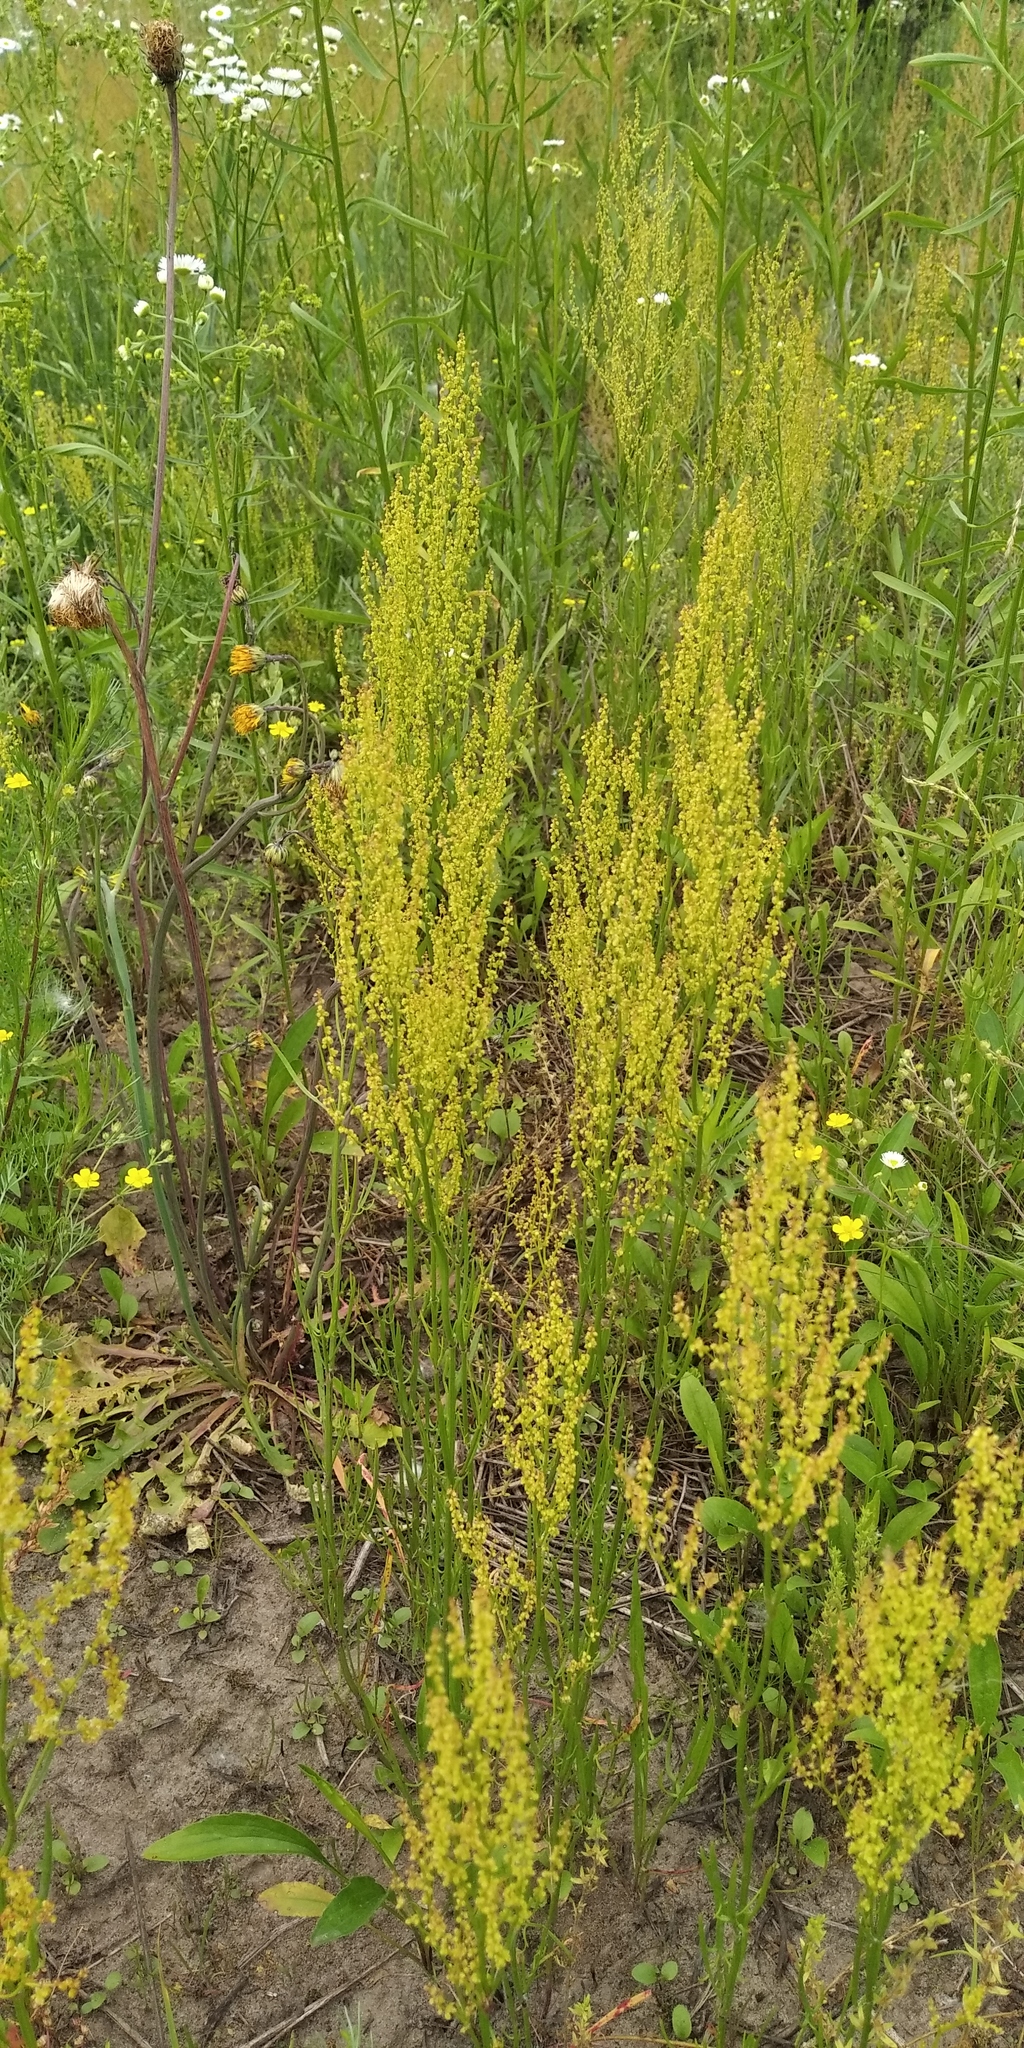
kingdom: Plantae
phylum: Tracheophyta
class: Magnoliopsida
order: Caryophyllales
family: Polygonaceae
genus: Rumex
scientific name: Rumex acetosella
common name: Common sheep sorrel
